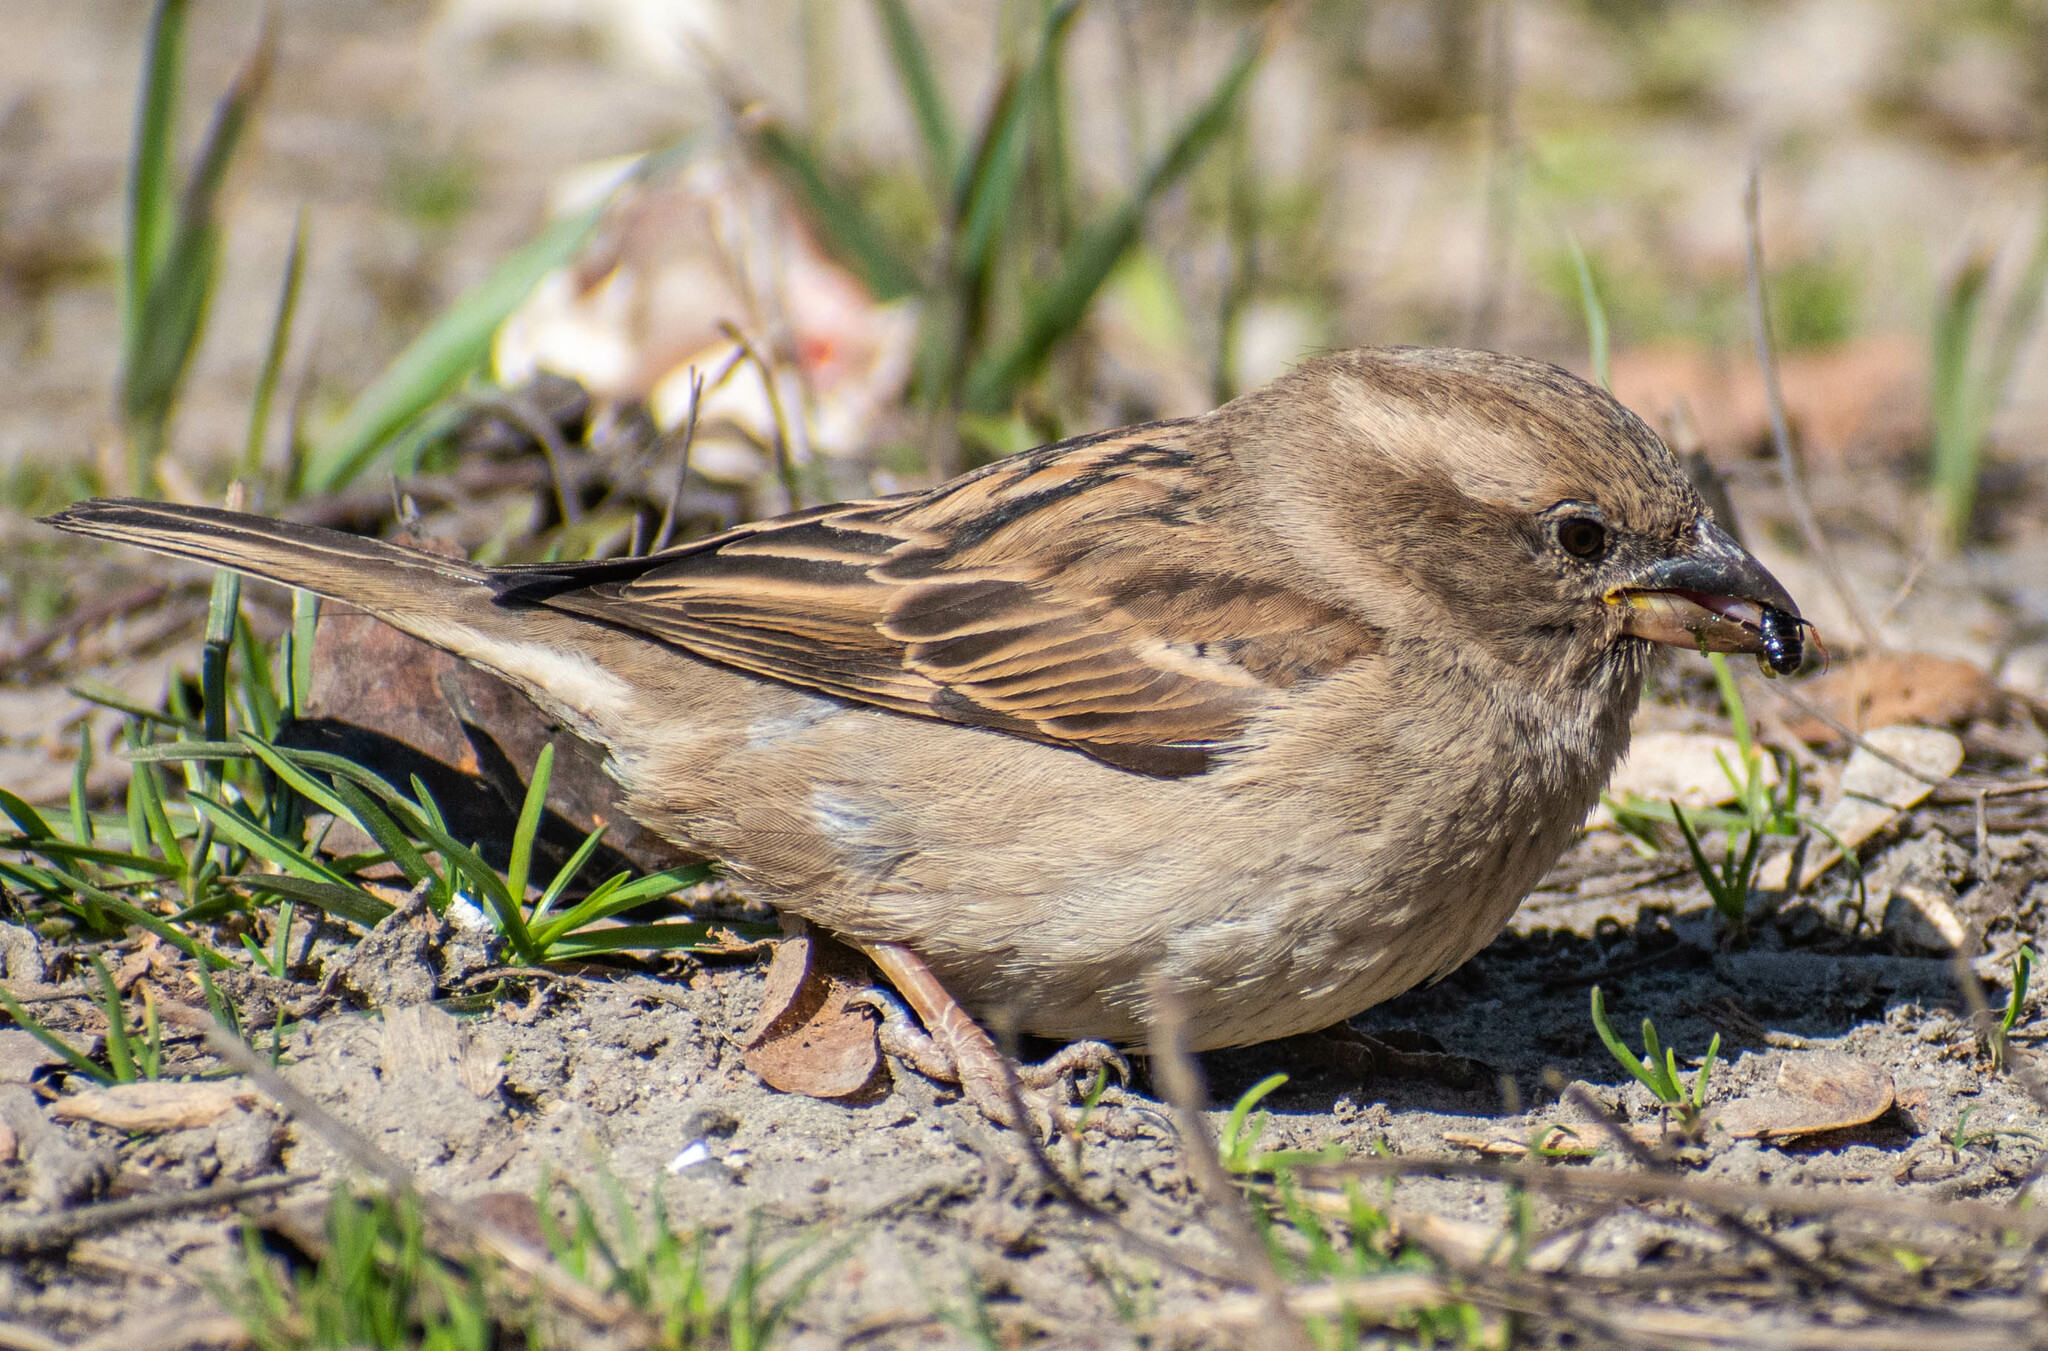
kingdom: Animalia
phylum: Chordata
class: Aves
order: Passeriformes
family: Passeridae
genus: Passer
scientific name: Passer domesticus
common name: House sparrow
